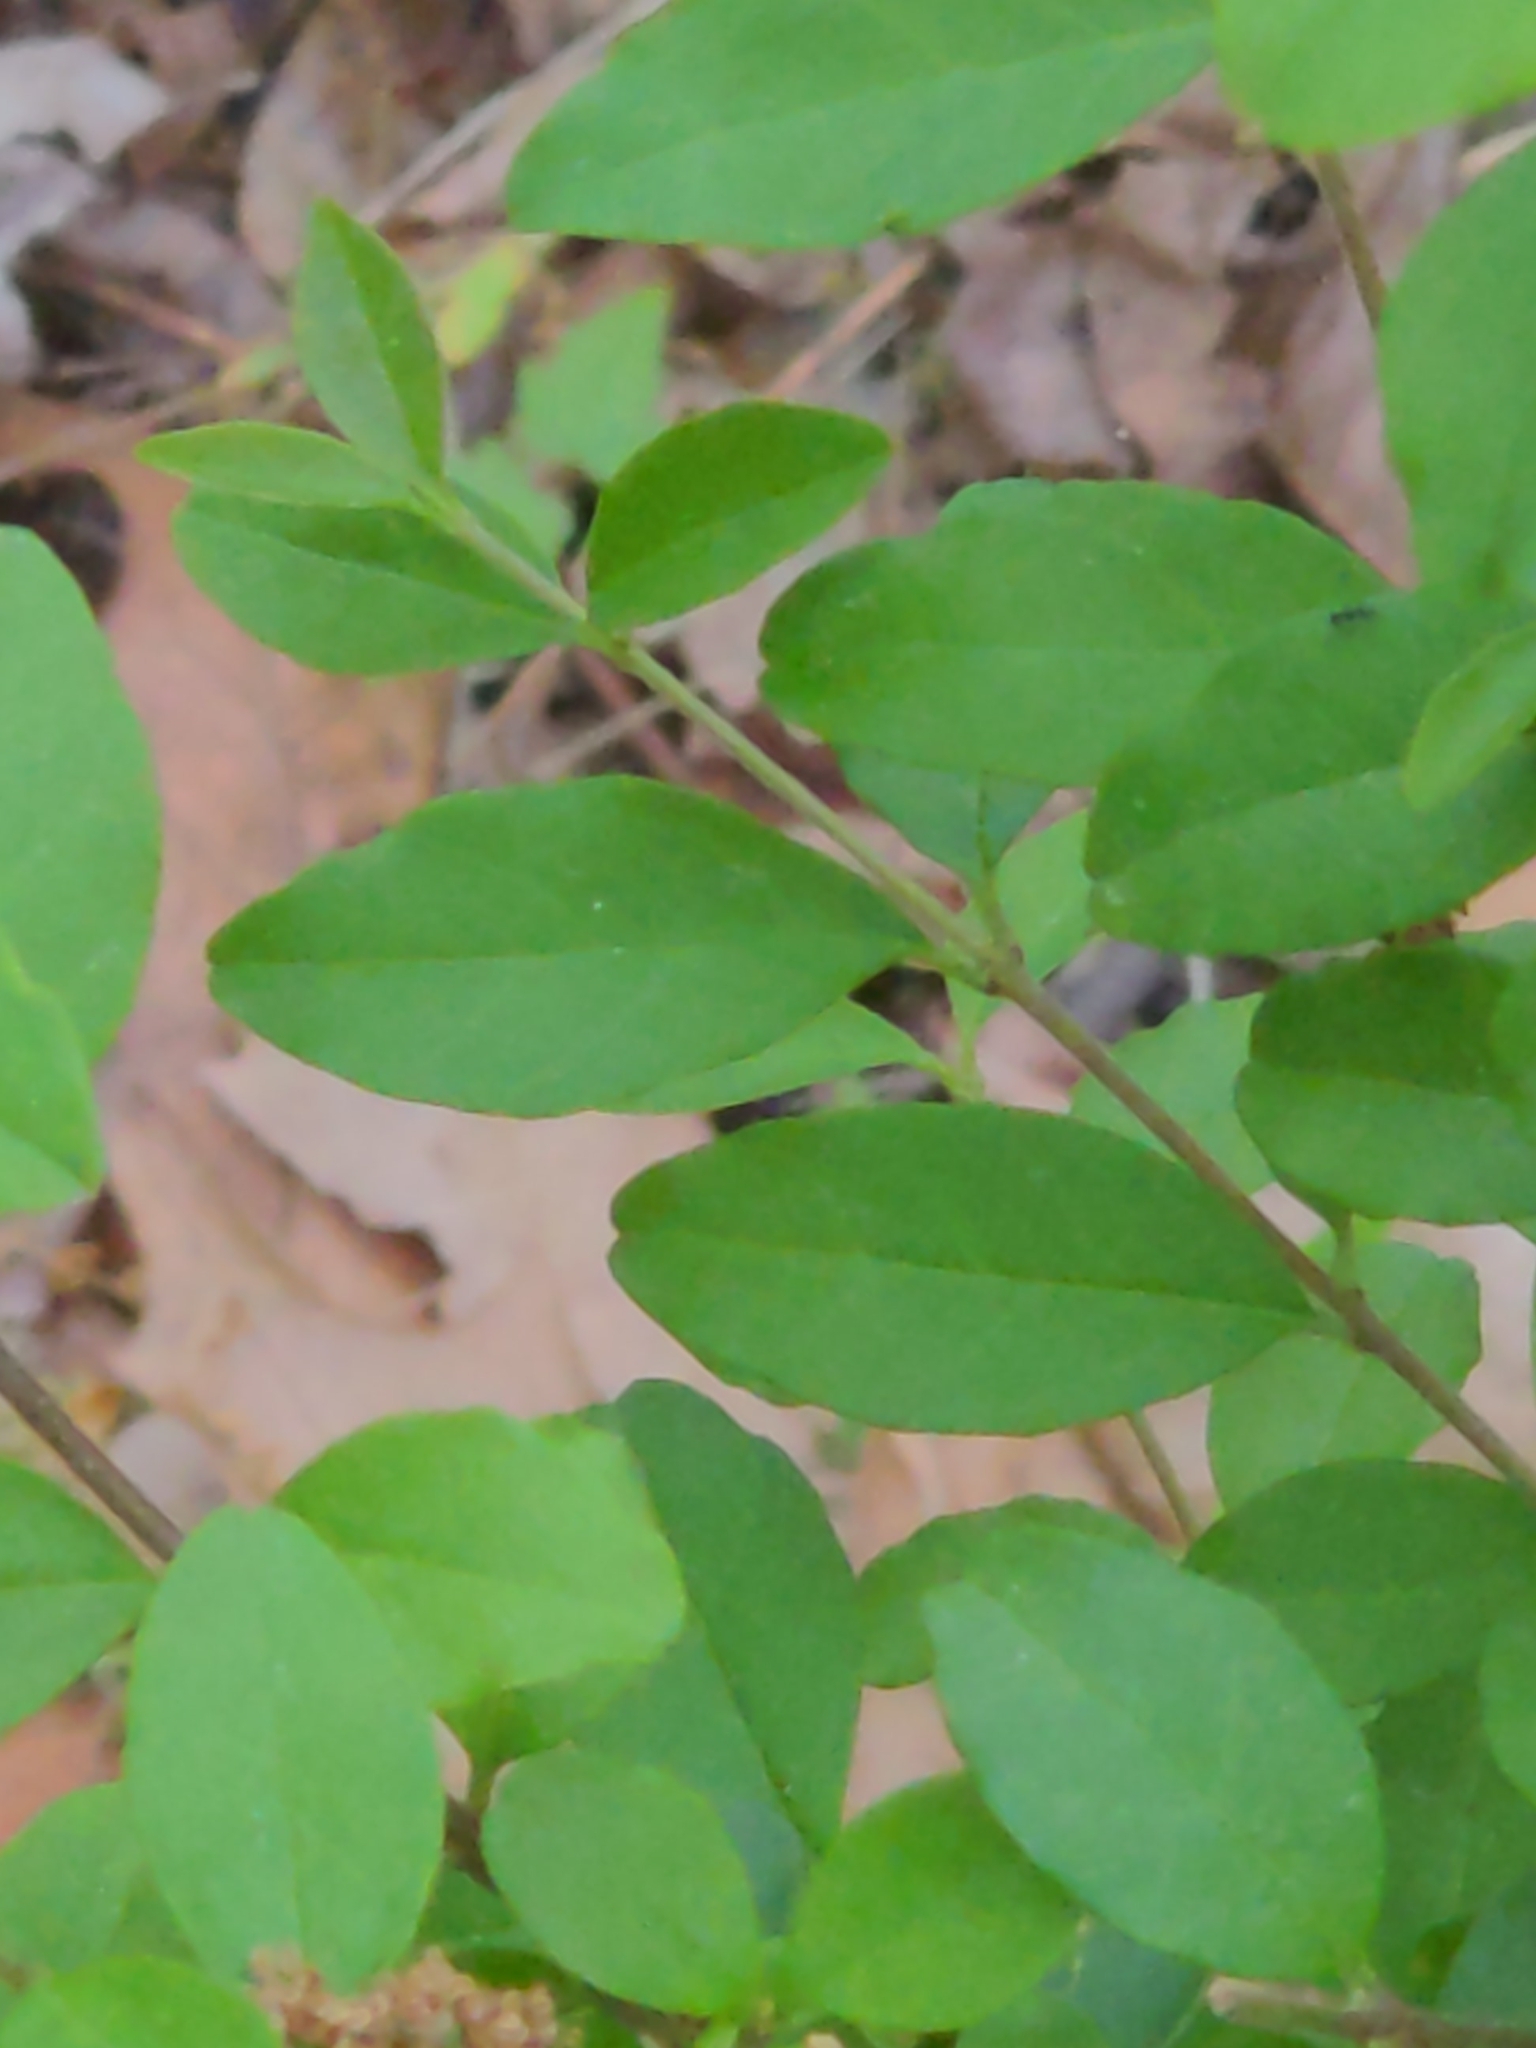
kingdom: Plantae
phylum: Tracheophyta
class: Magnoliopsida
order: Lamiales
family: Oleaceae
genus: Ligustrum
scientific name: Ligustrum sinense
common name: Chinese privet
